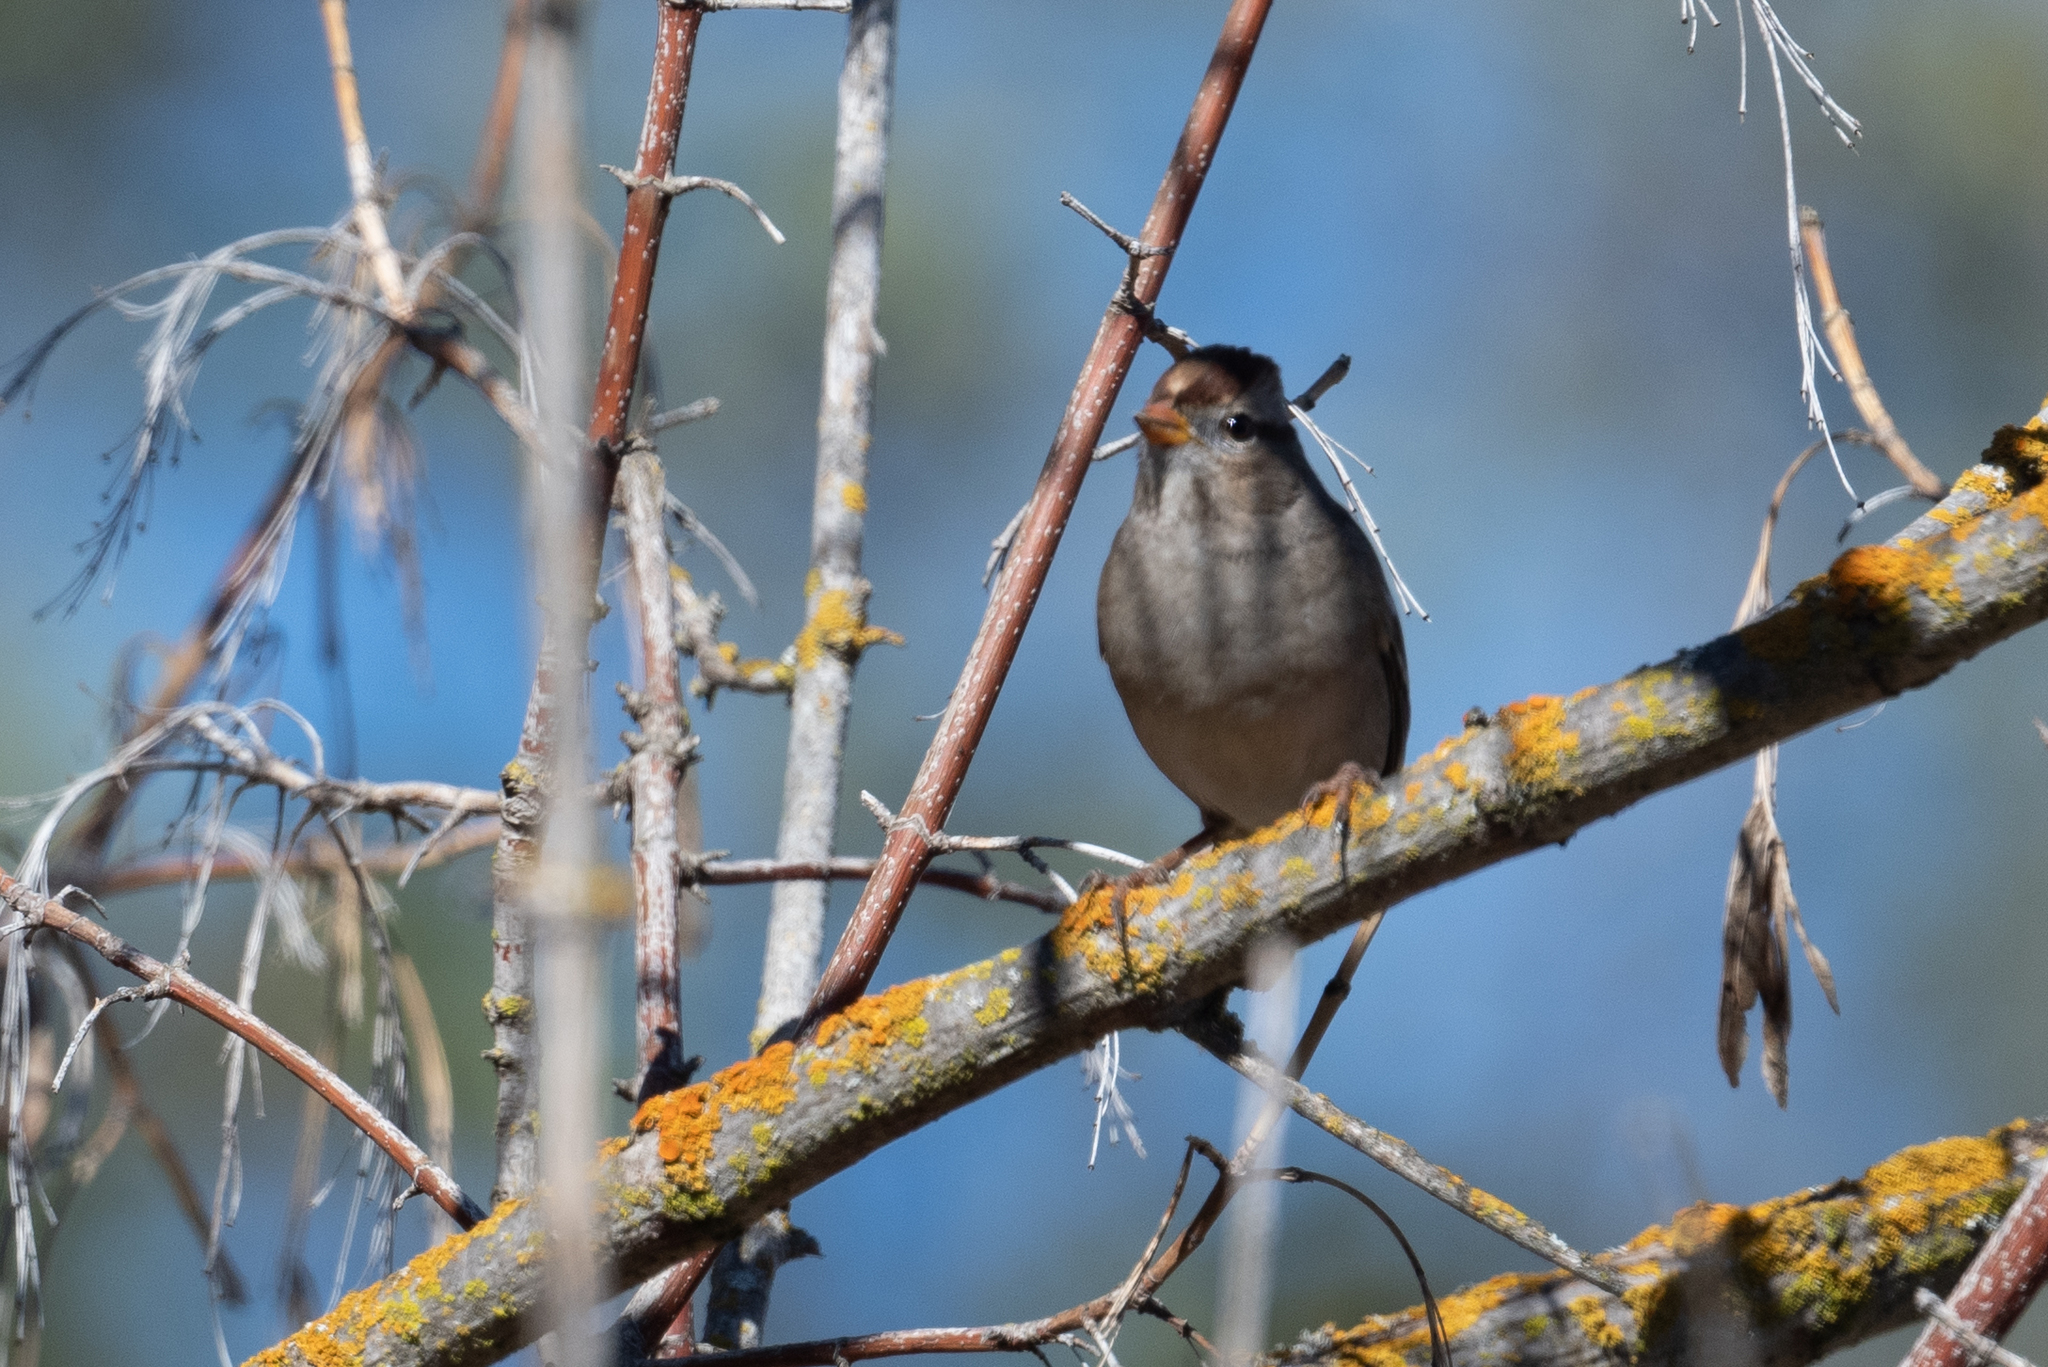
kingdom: Animalia
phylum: Chordata
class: Aves
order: Passeriformes
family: Passerellidae
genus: Zonotrichia
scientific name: Zonotrichia atricapilla
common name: Golden-crowned sparrow
